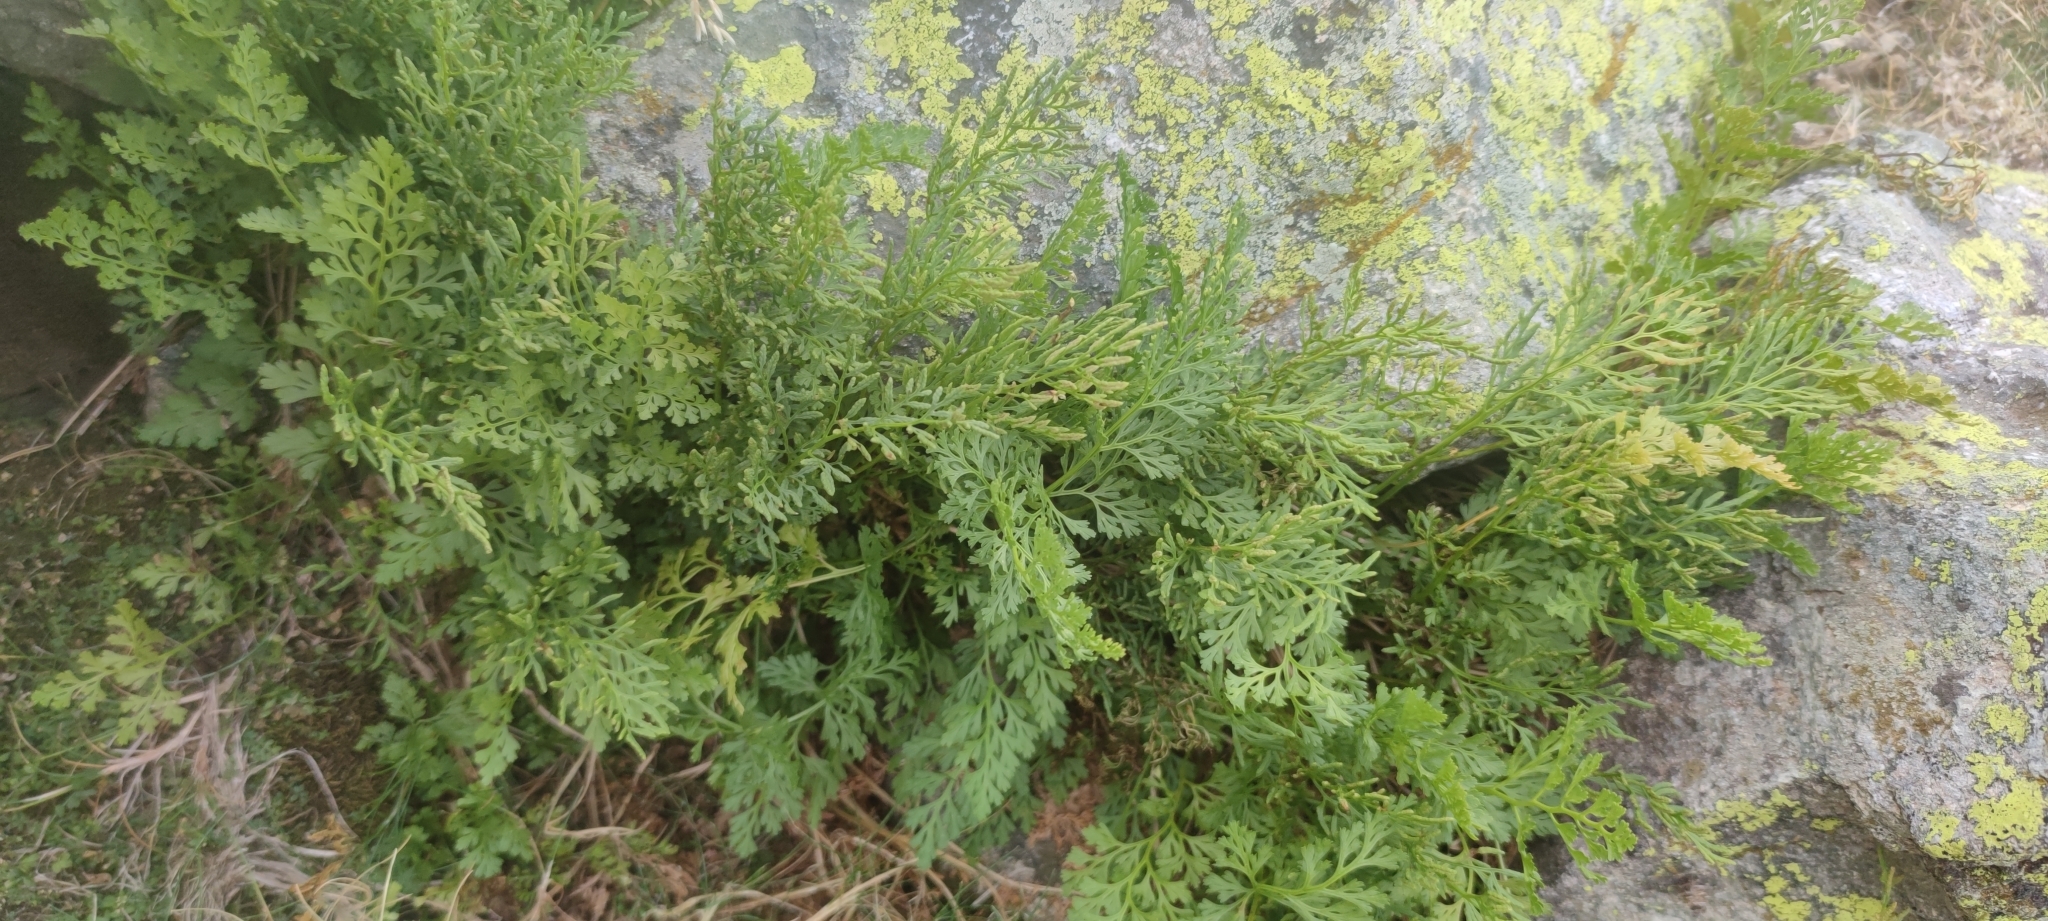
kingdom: Plantae
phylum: Tracheophyta
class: Polypodiopsida
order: Polypodiales
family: Pteridaceae
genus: Cryptogramma
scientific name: Cryptogramma crispa
